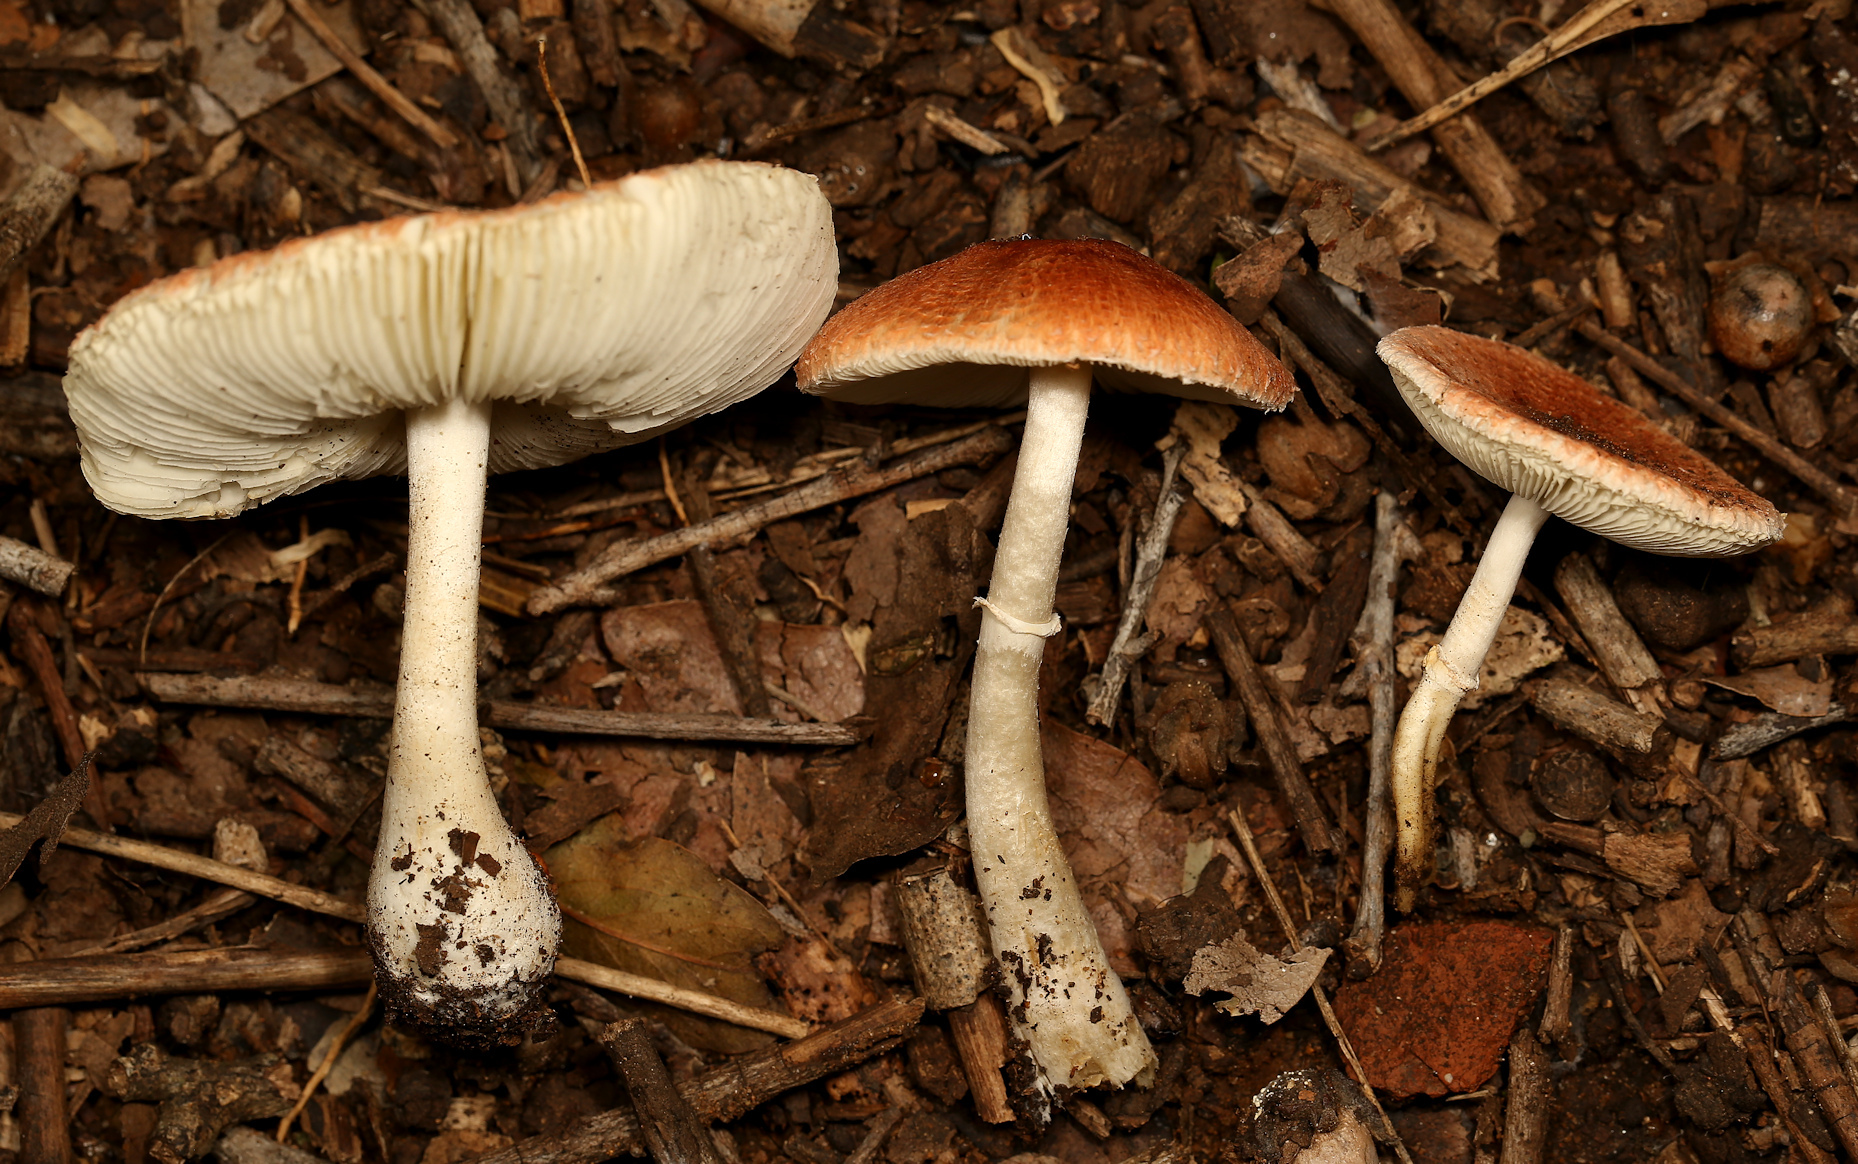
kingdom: Fungi
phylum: Basidiomycota
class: Agaricomycetes
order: Agaricales
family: Agaricaceae
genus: Leucoagaricus
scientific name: Leucoagaricus rubrotinctus
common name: Ruby dapperling
